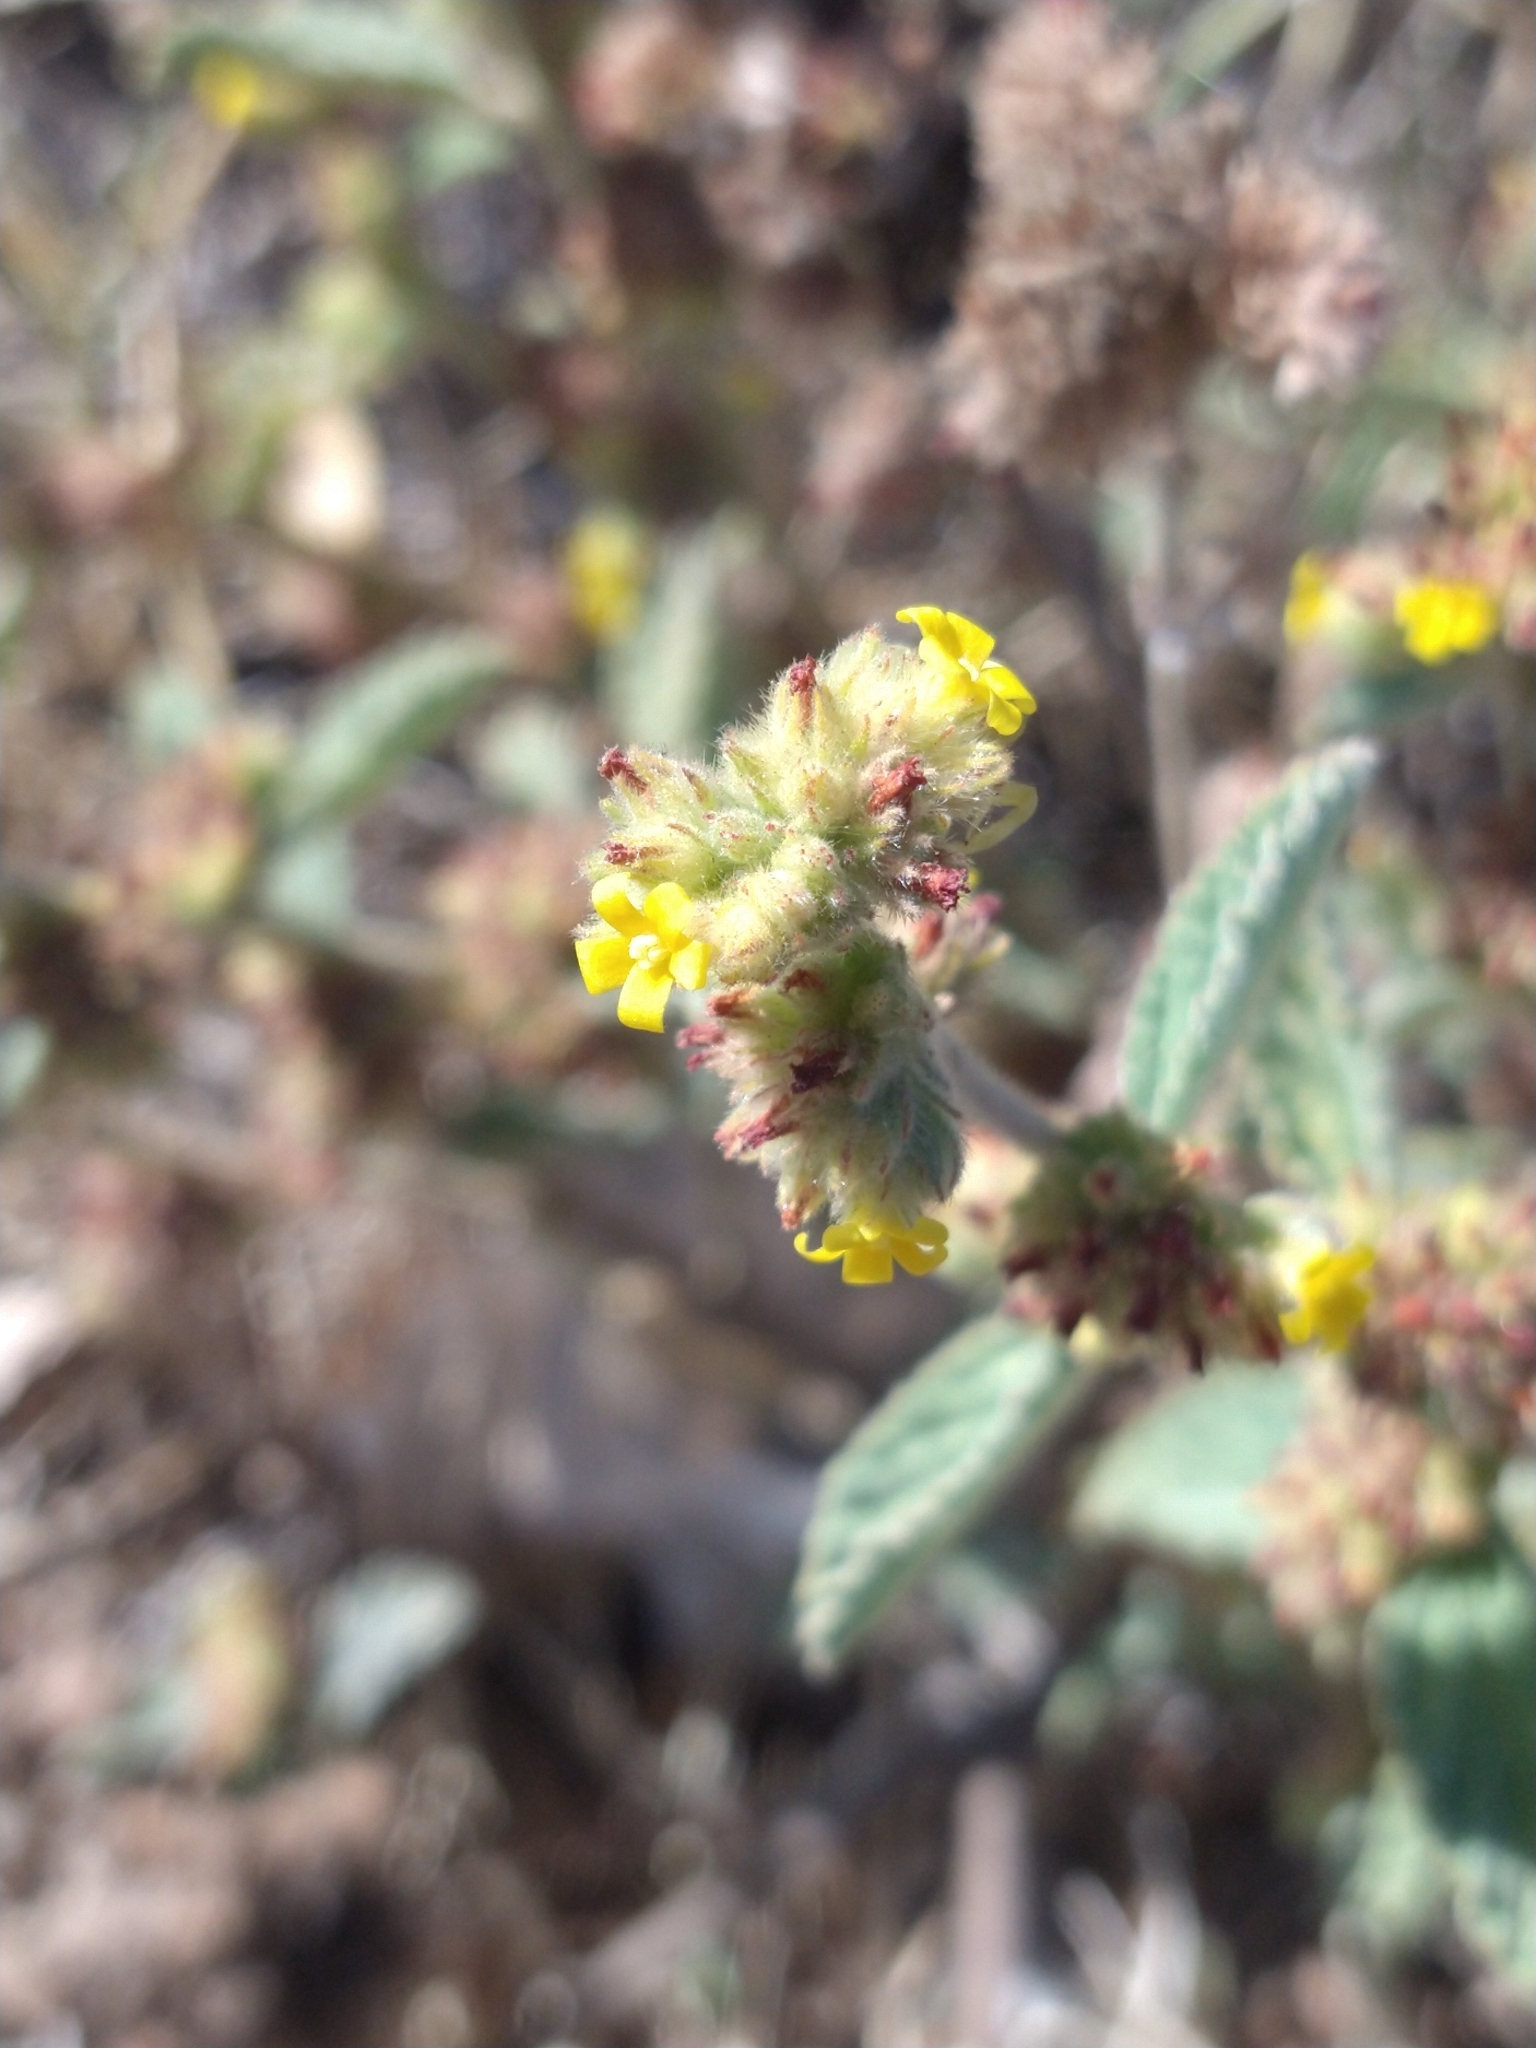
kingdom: Plantae
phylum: Tracheophyta
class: Magnoliopsida
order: Malvales
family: Malvaceae
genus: Waltheria
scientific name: Waltheria indica
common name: Leather-coat
